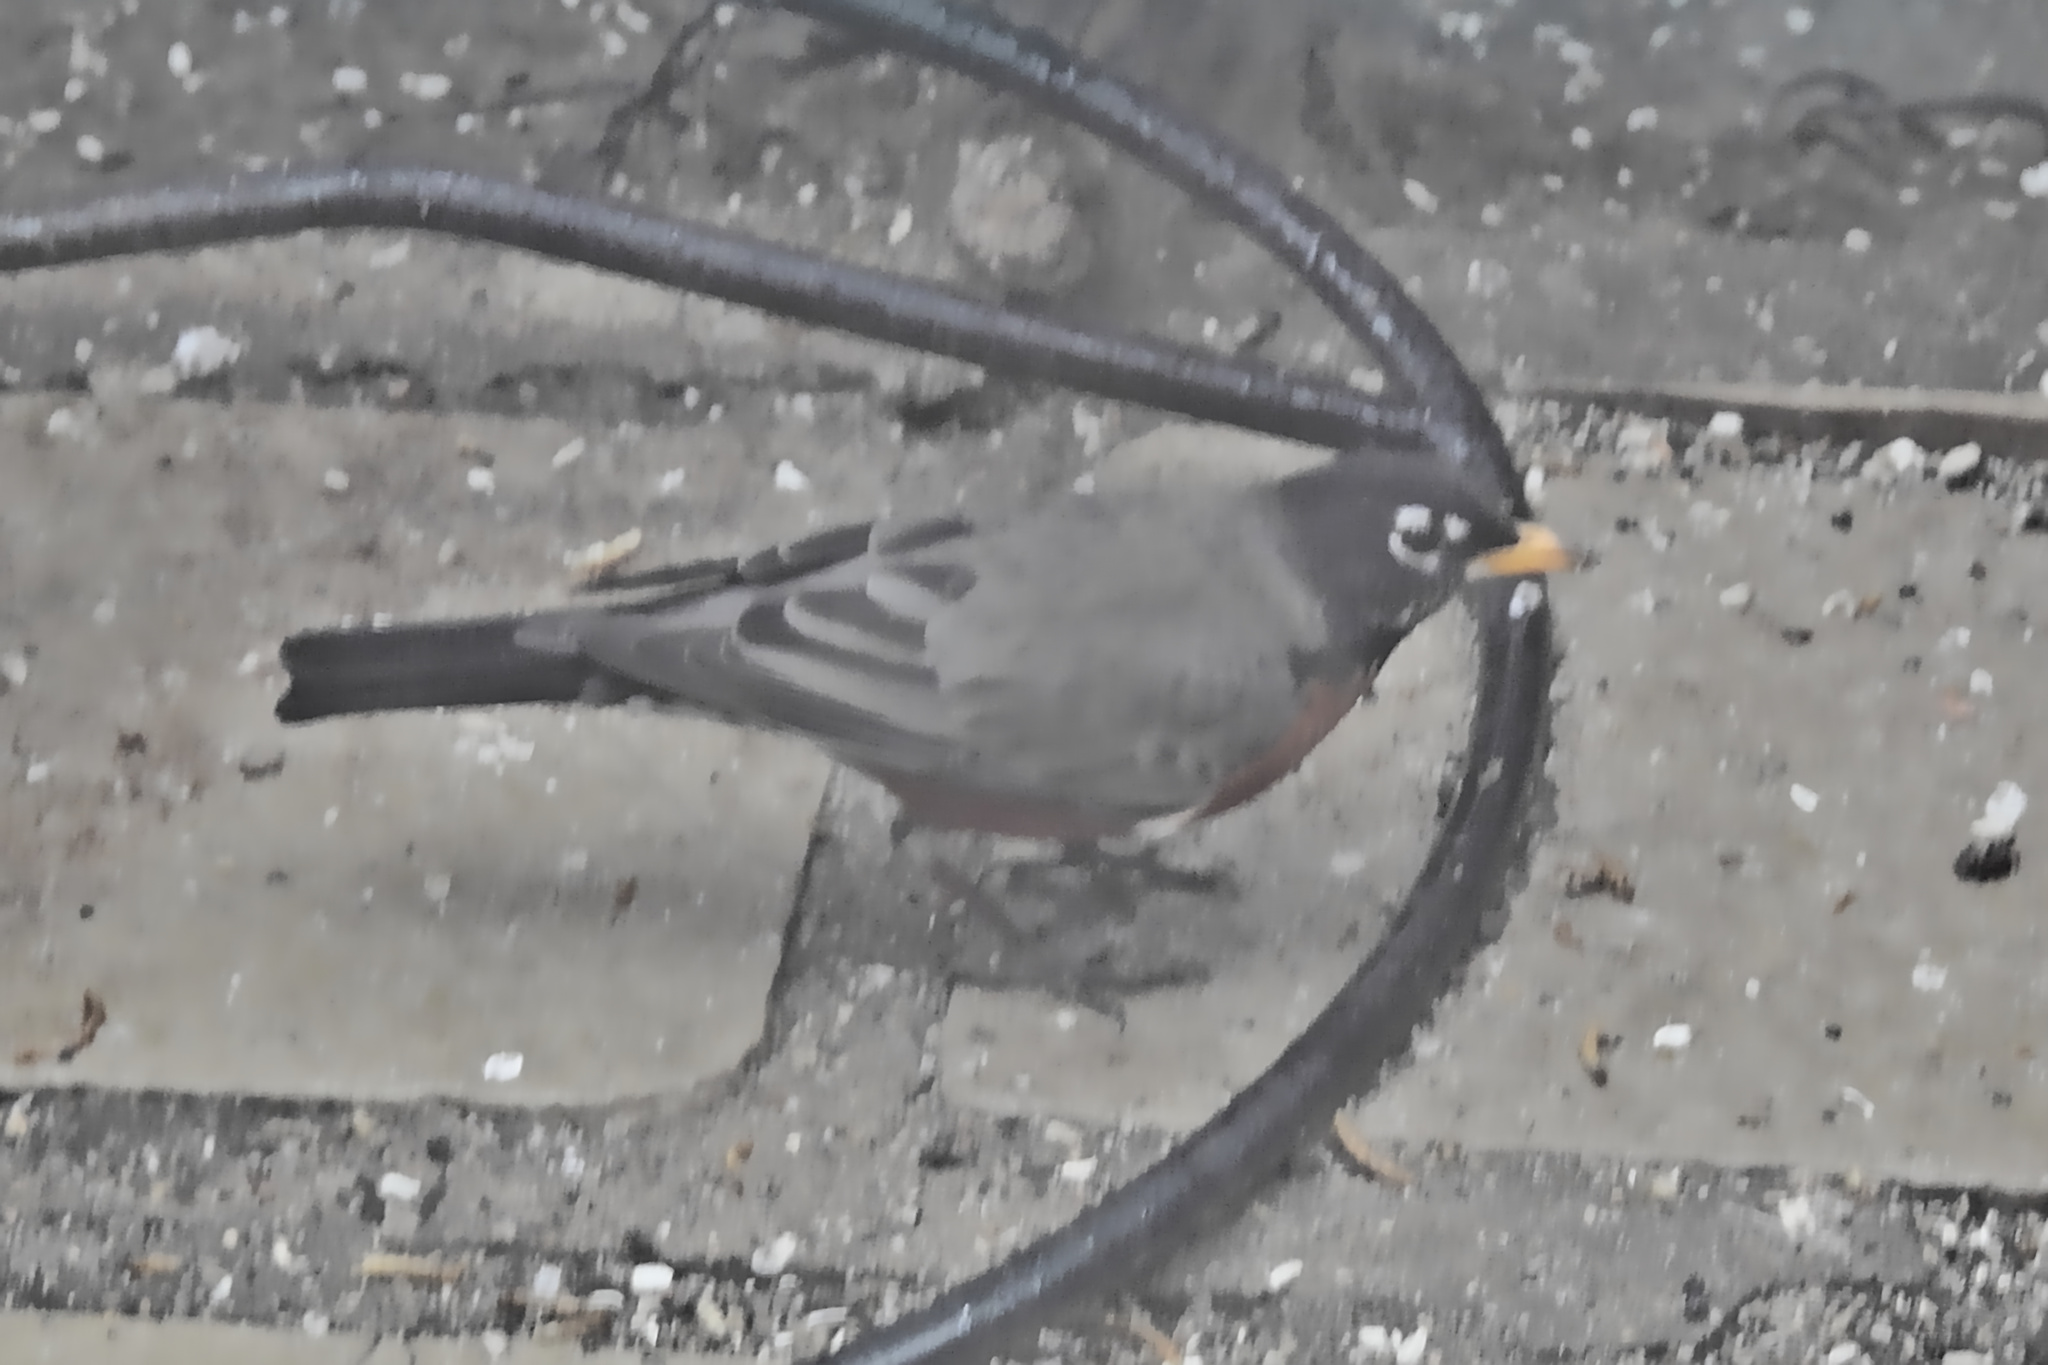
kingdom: Animalia
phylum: Chordata
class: Aves
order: Passeriformes
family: Turdidae
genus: Turdus
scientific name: Turdus migratorius
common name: American robin
